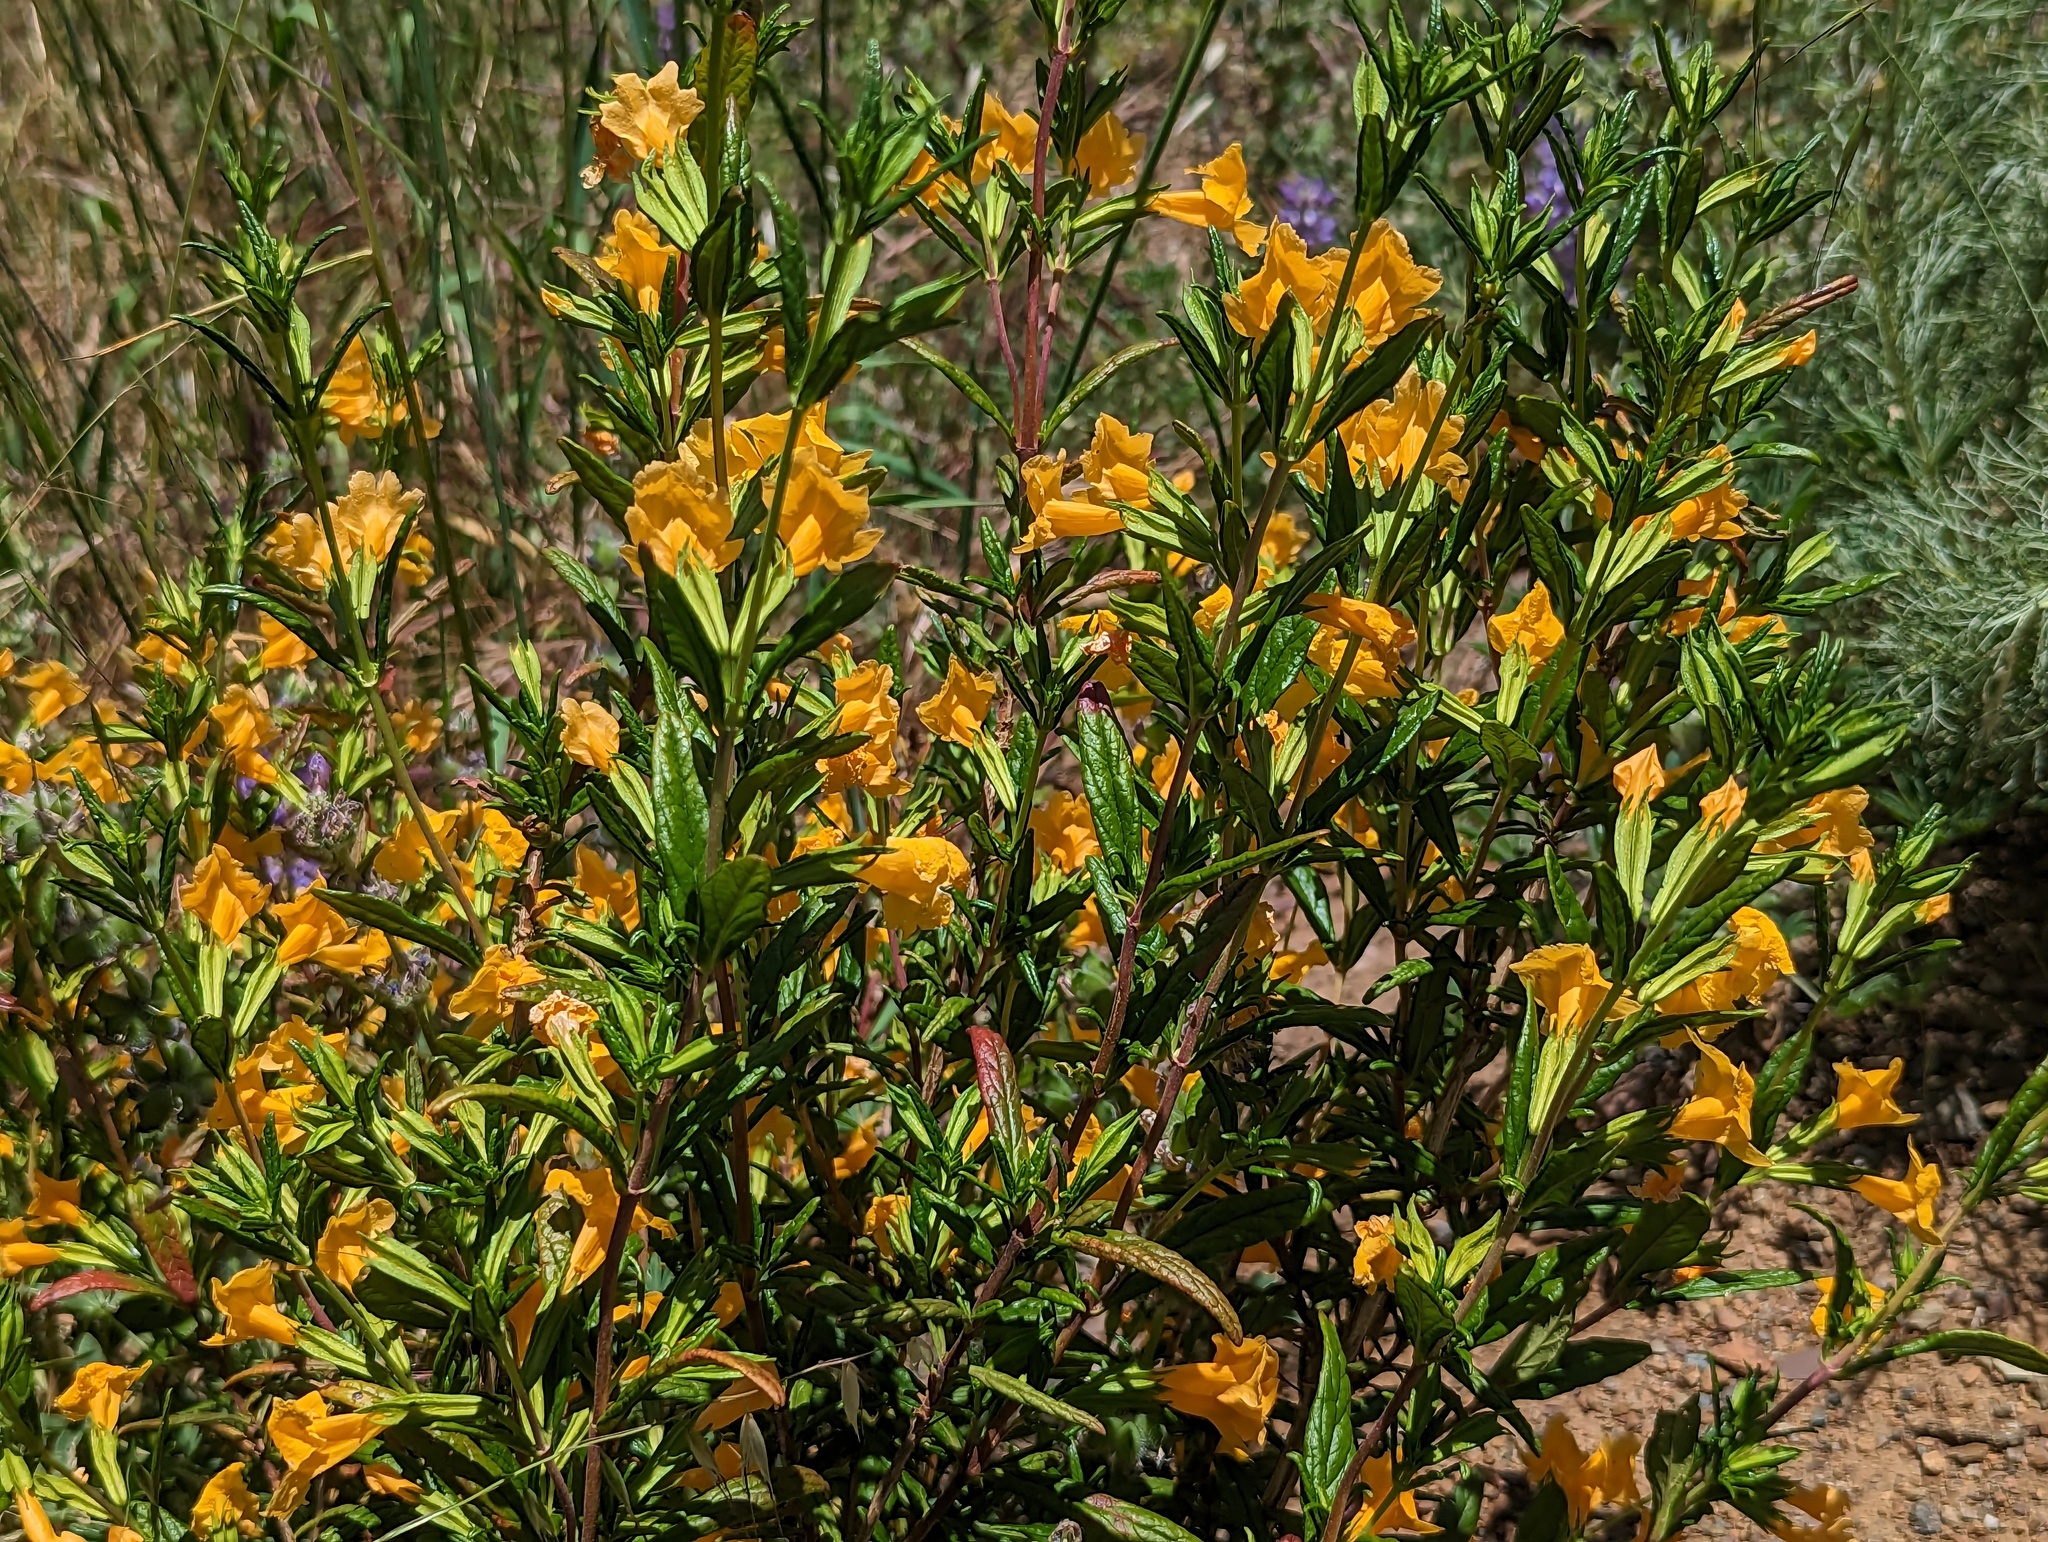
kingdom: Plantae
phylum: Tracheophyta
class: Magnoliopsida
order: Lamiales
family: Phrymaceae
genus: Diplacus
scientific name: Diplacus aurantiacus
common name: Bush monkey-flower
